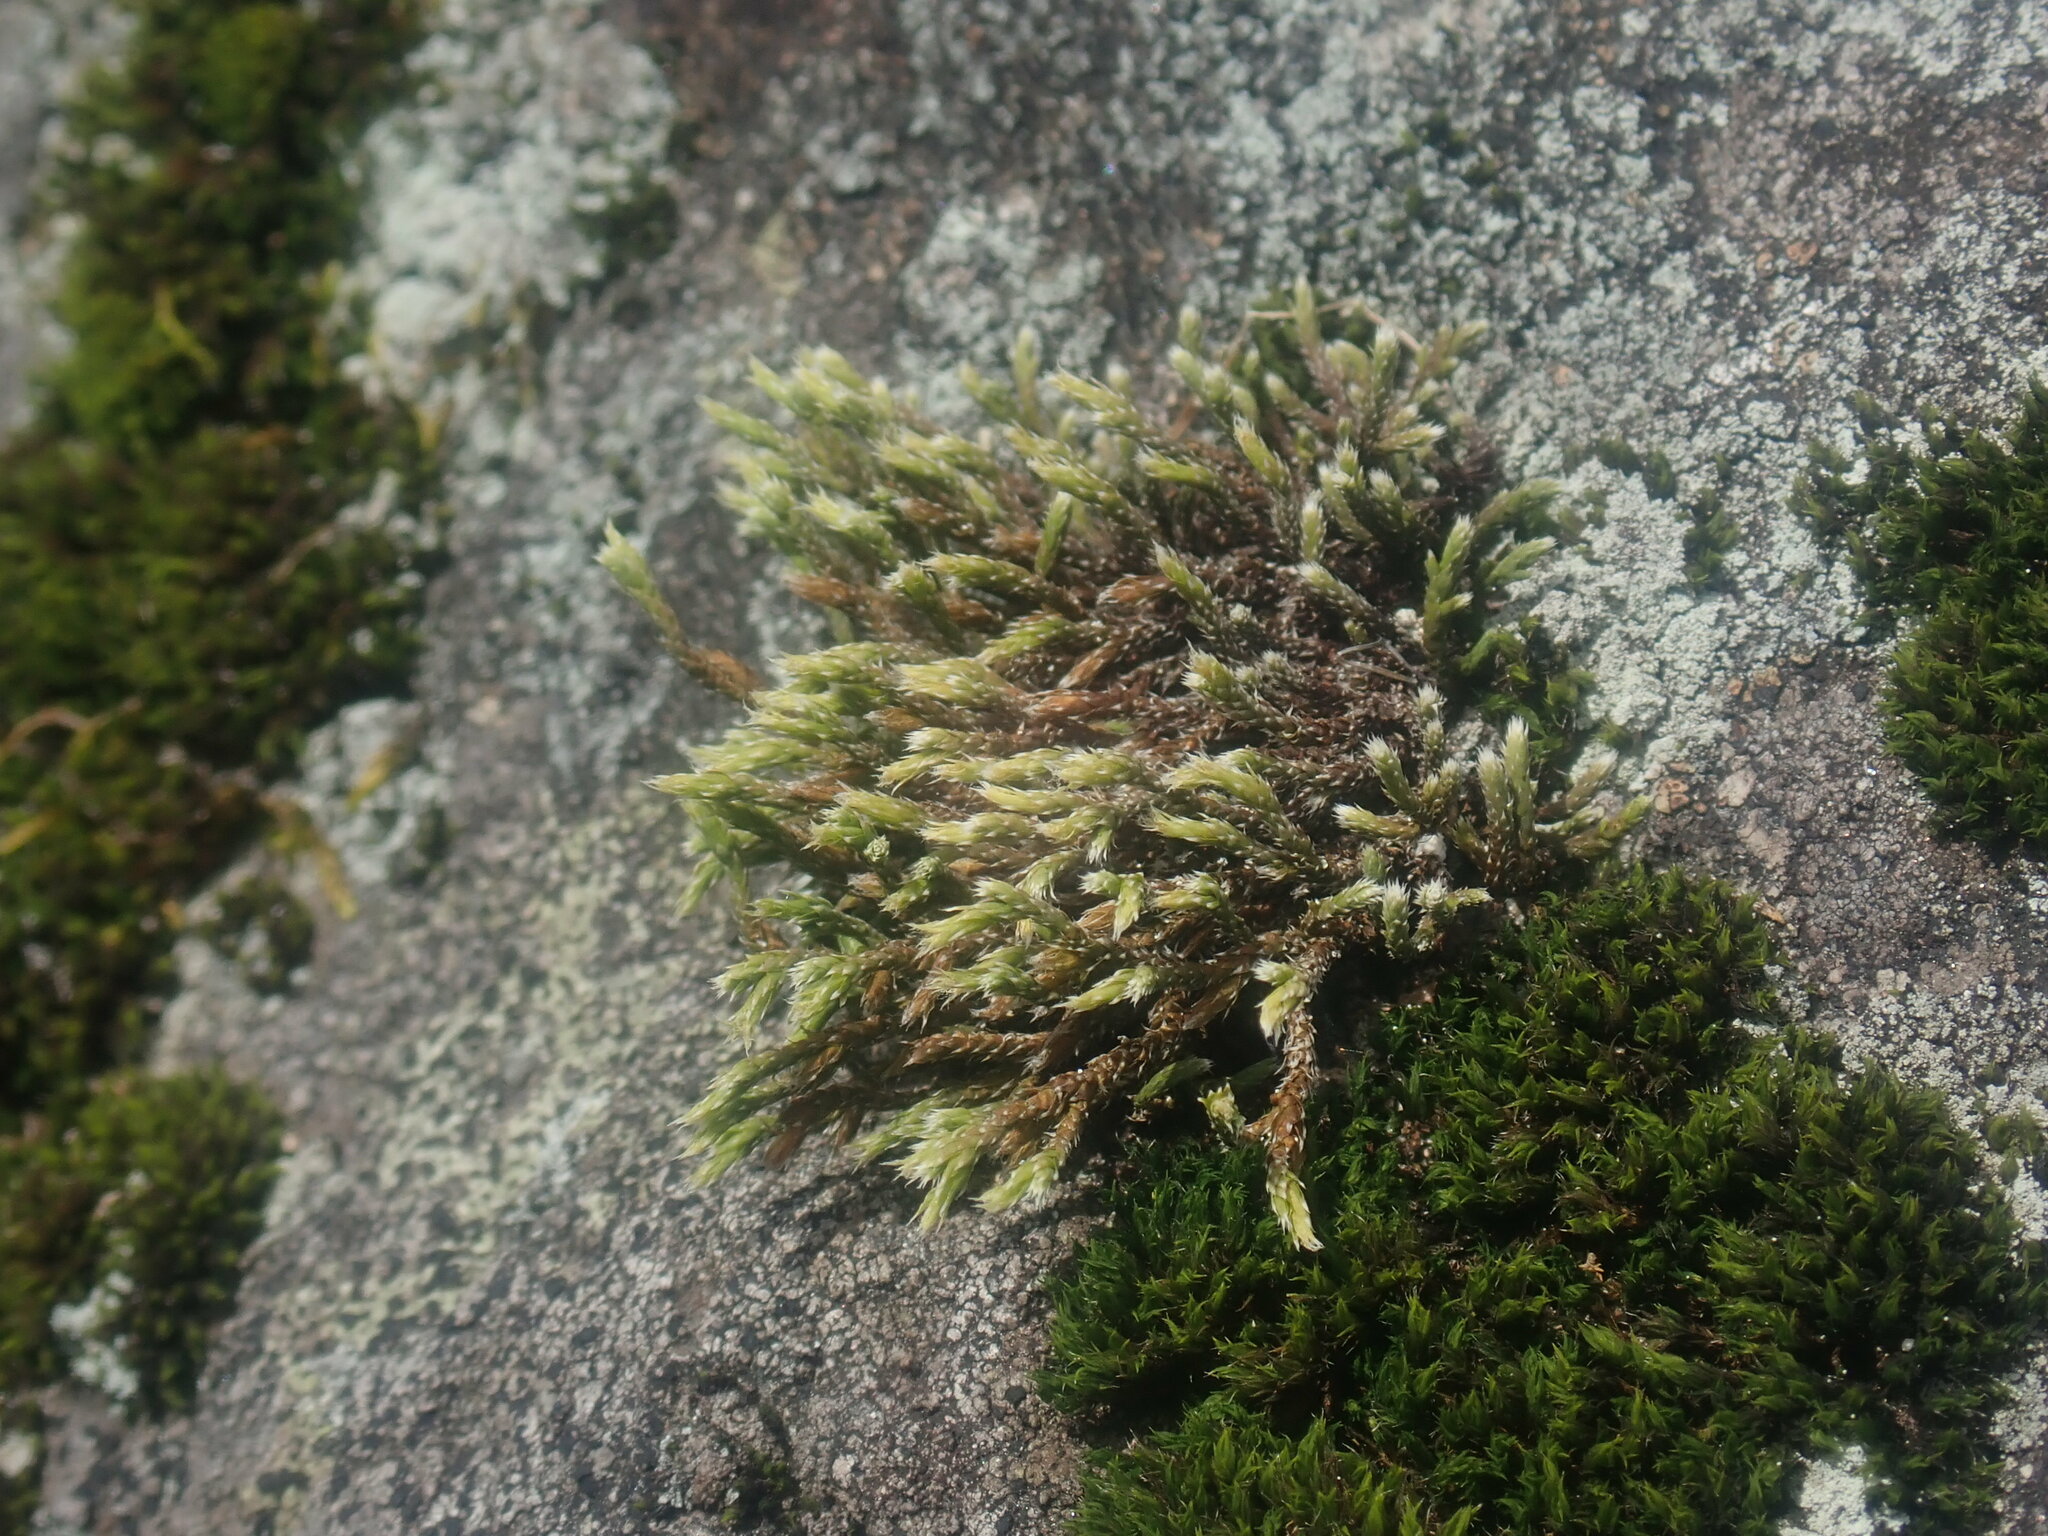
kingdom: Plantae
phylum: Bryophyta
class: Bryopsida
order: Hedwigiales
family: Hedwigiaceae
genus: Hedwigia
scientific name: Hedwigia ciliata
